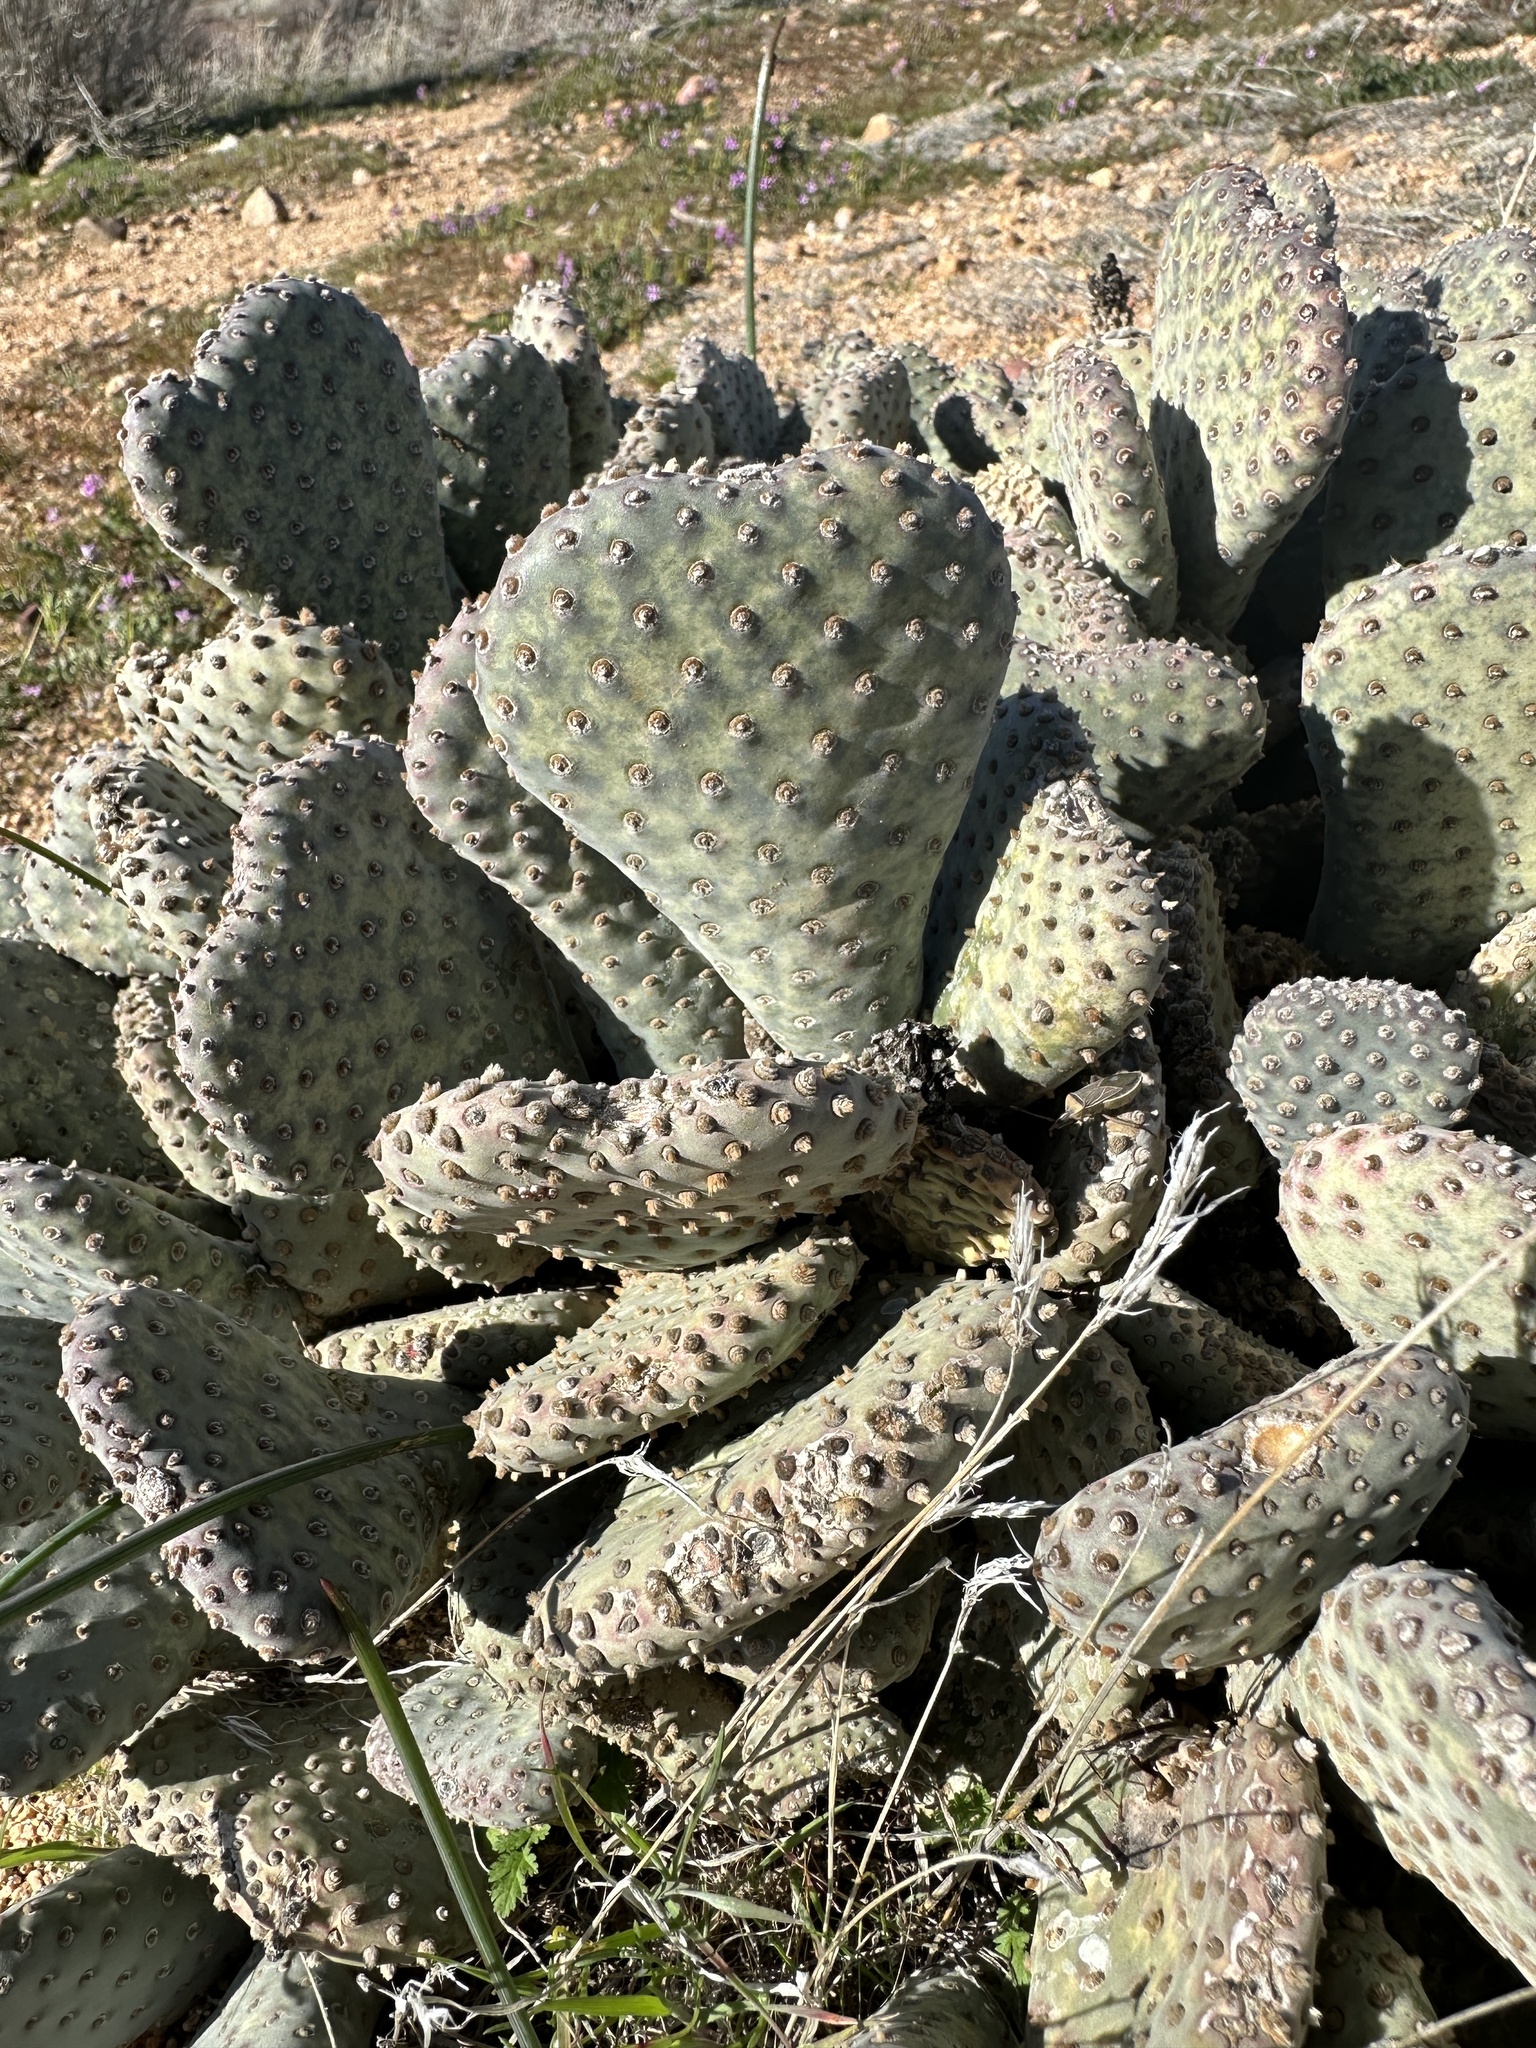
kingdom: Plantae
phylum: Tracheophyta
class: Magnoliopsida
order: Caryophyllales
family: Cactaceae
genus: Opuntia
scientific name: Opuntia basilaris
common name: Beavertail prickly-pear
